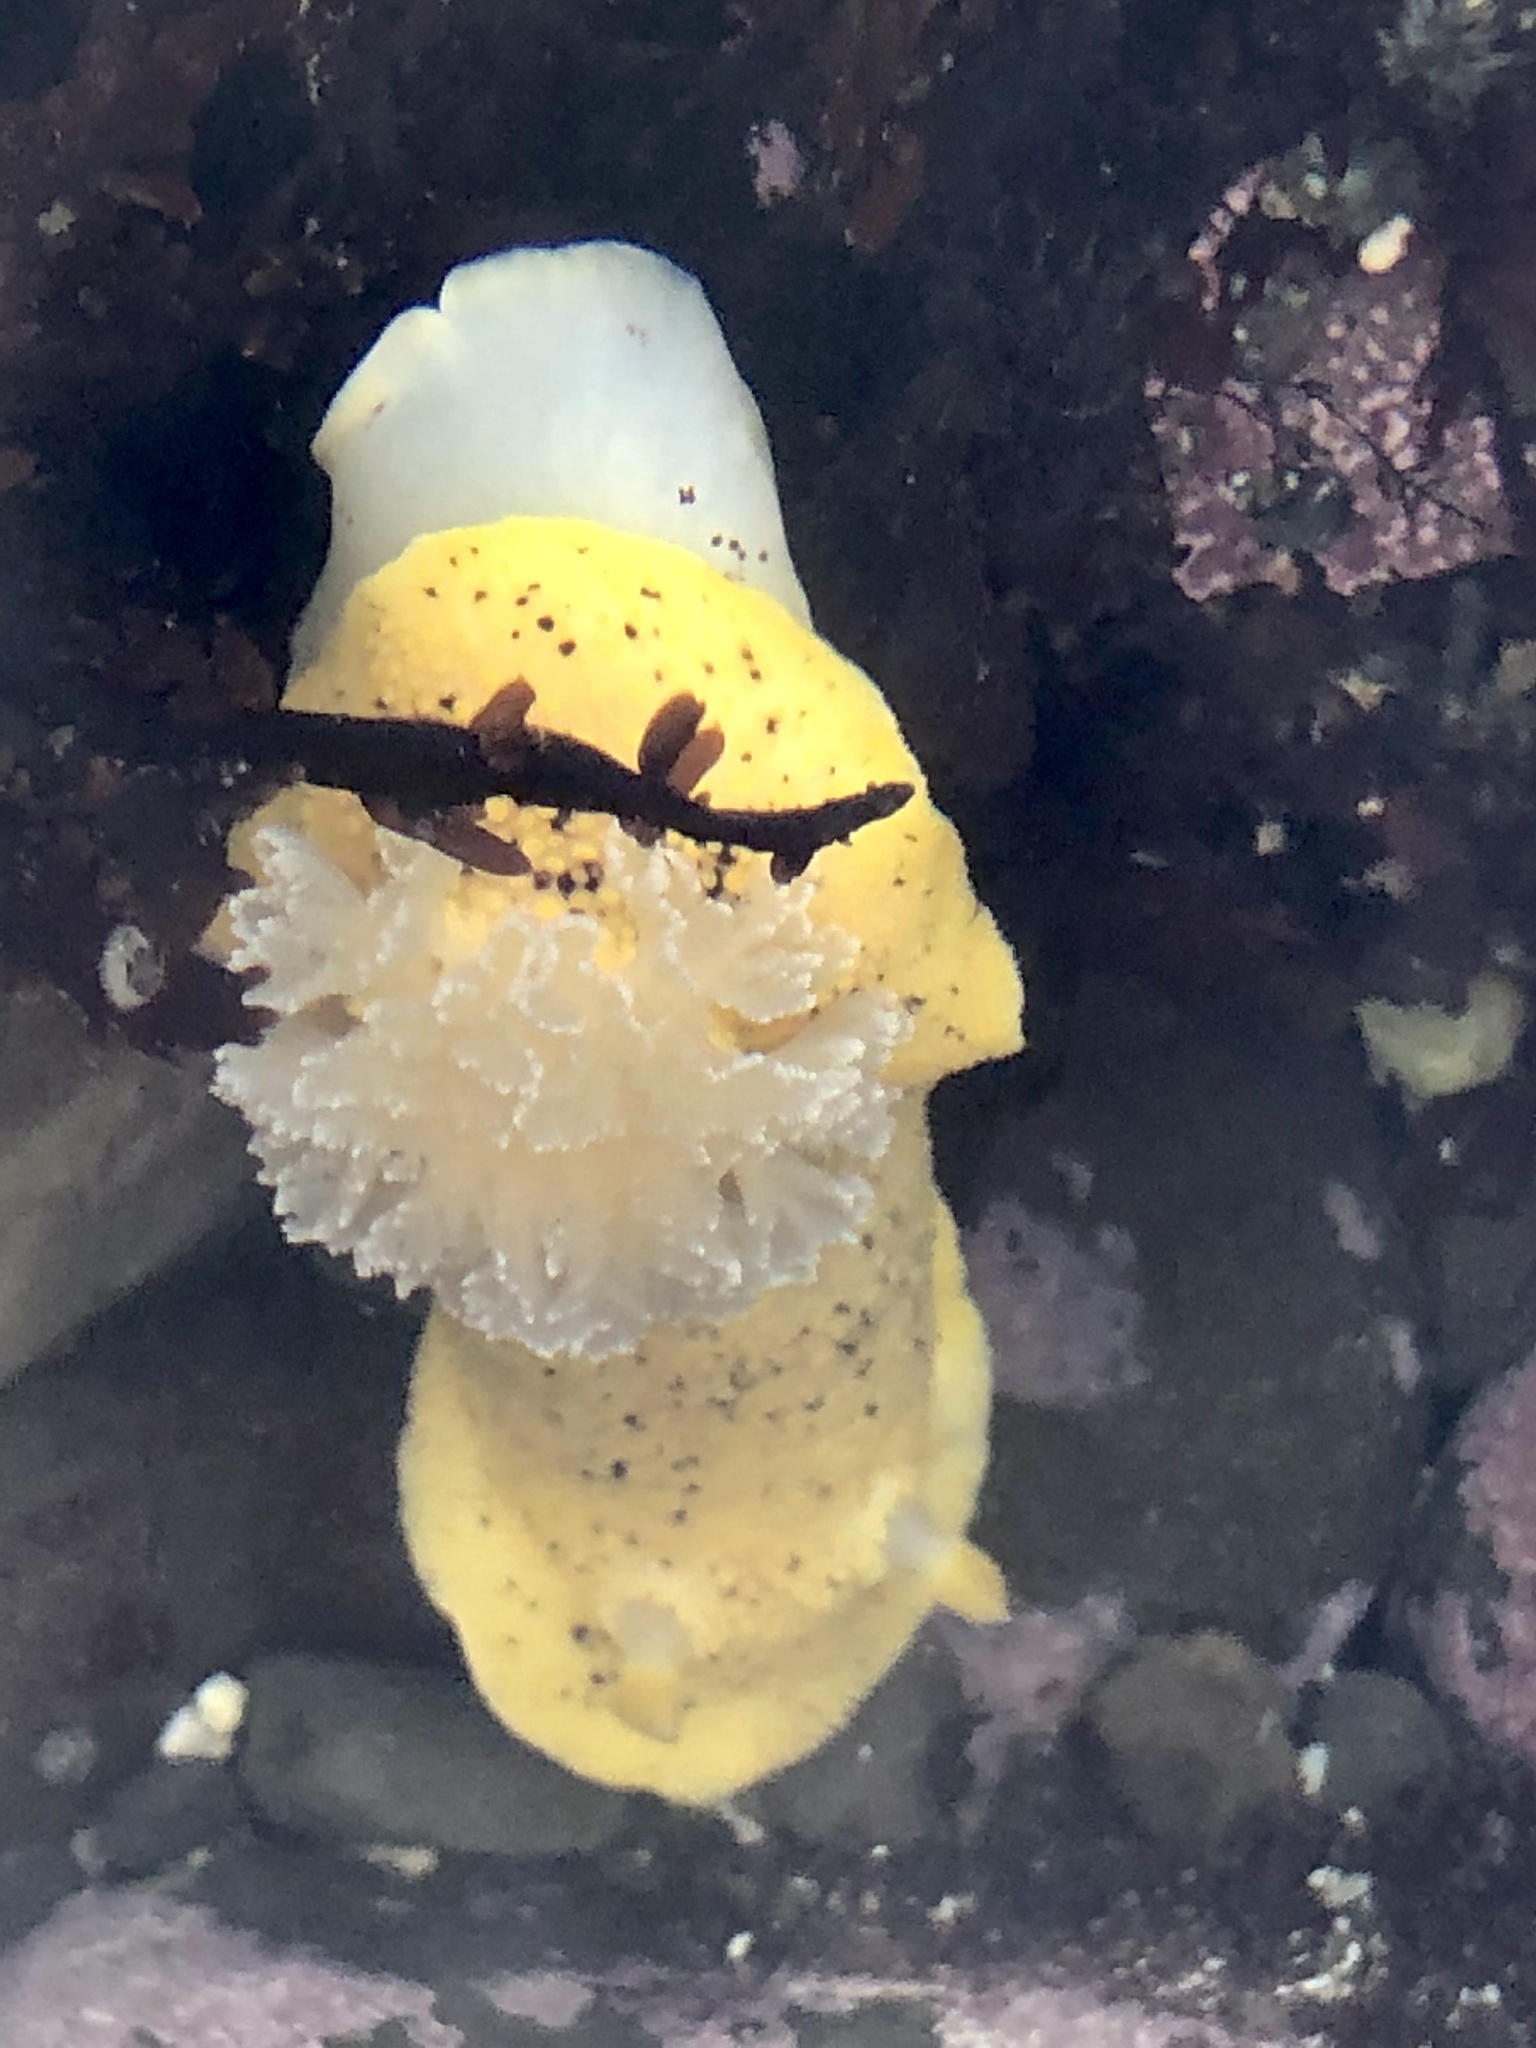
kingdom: Animalia
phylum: Mollusca
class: Gastropoda
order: Nudibranchia
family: Discodorididae
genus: Peltodoris
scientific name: Peltodoris nobilis
